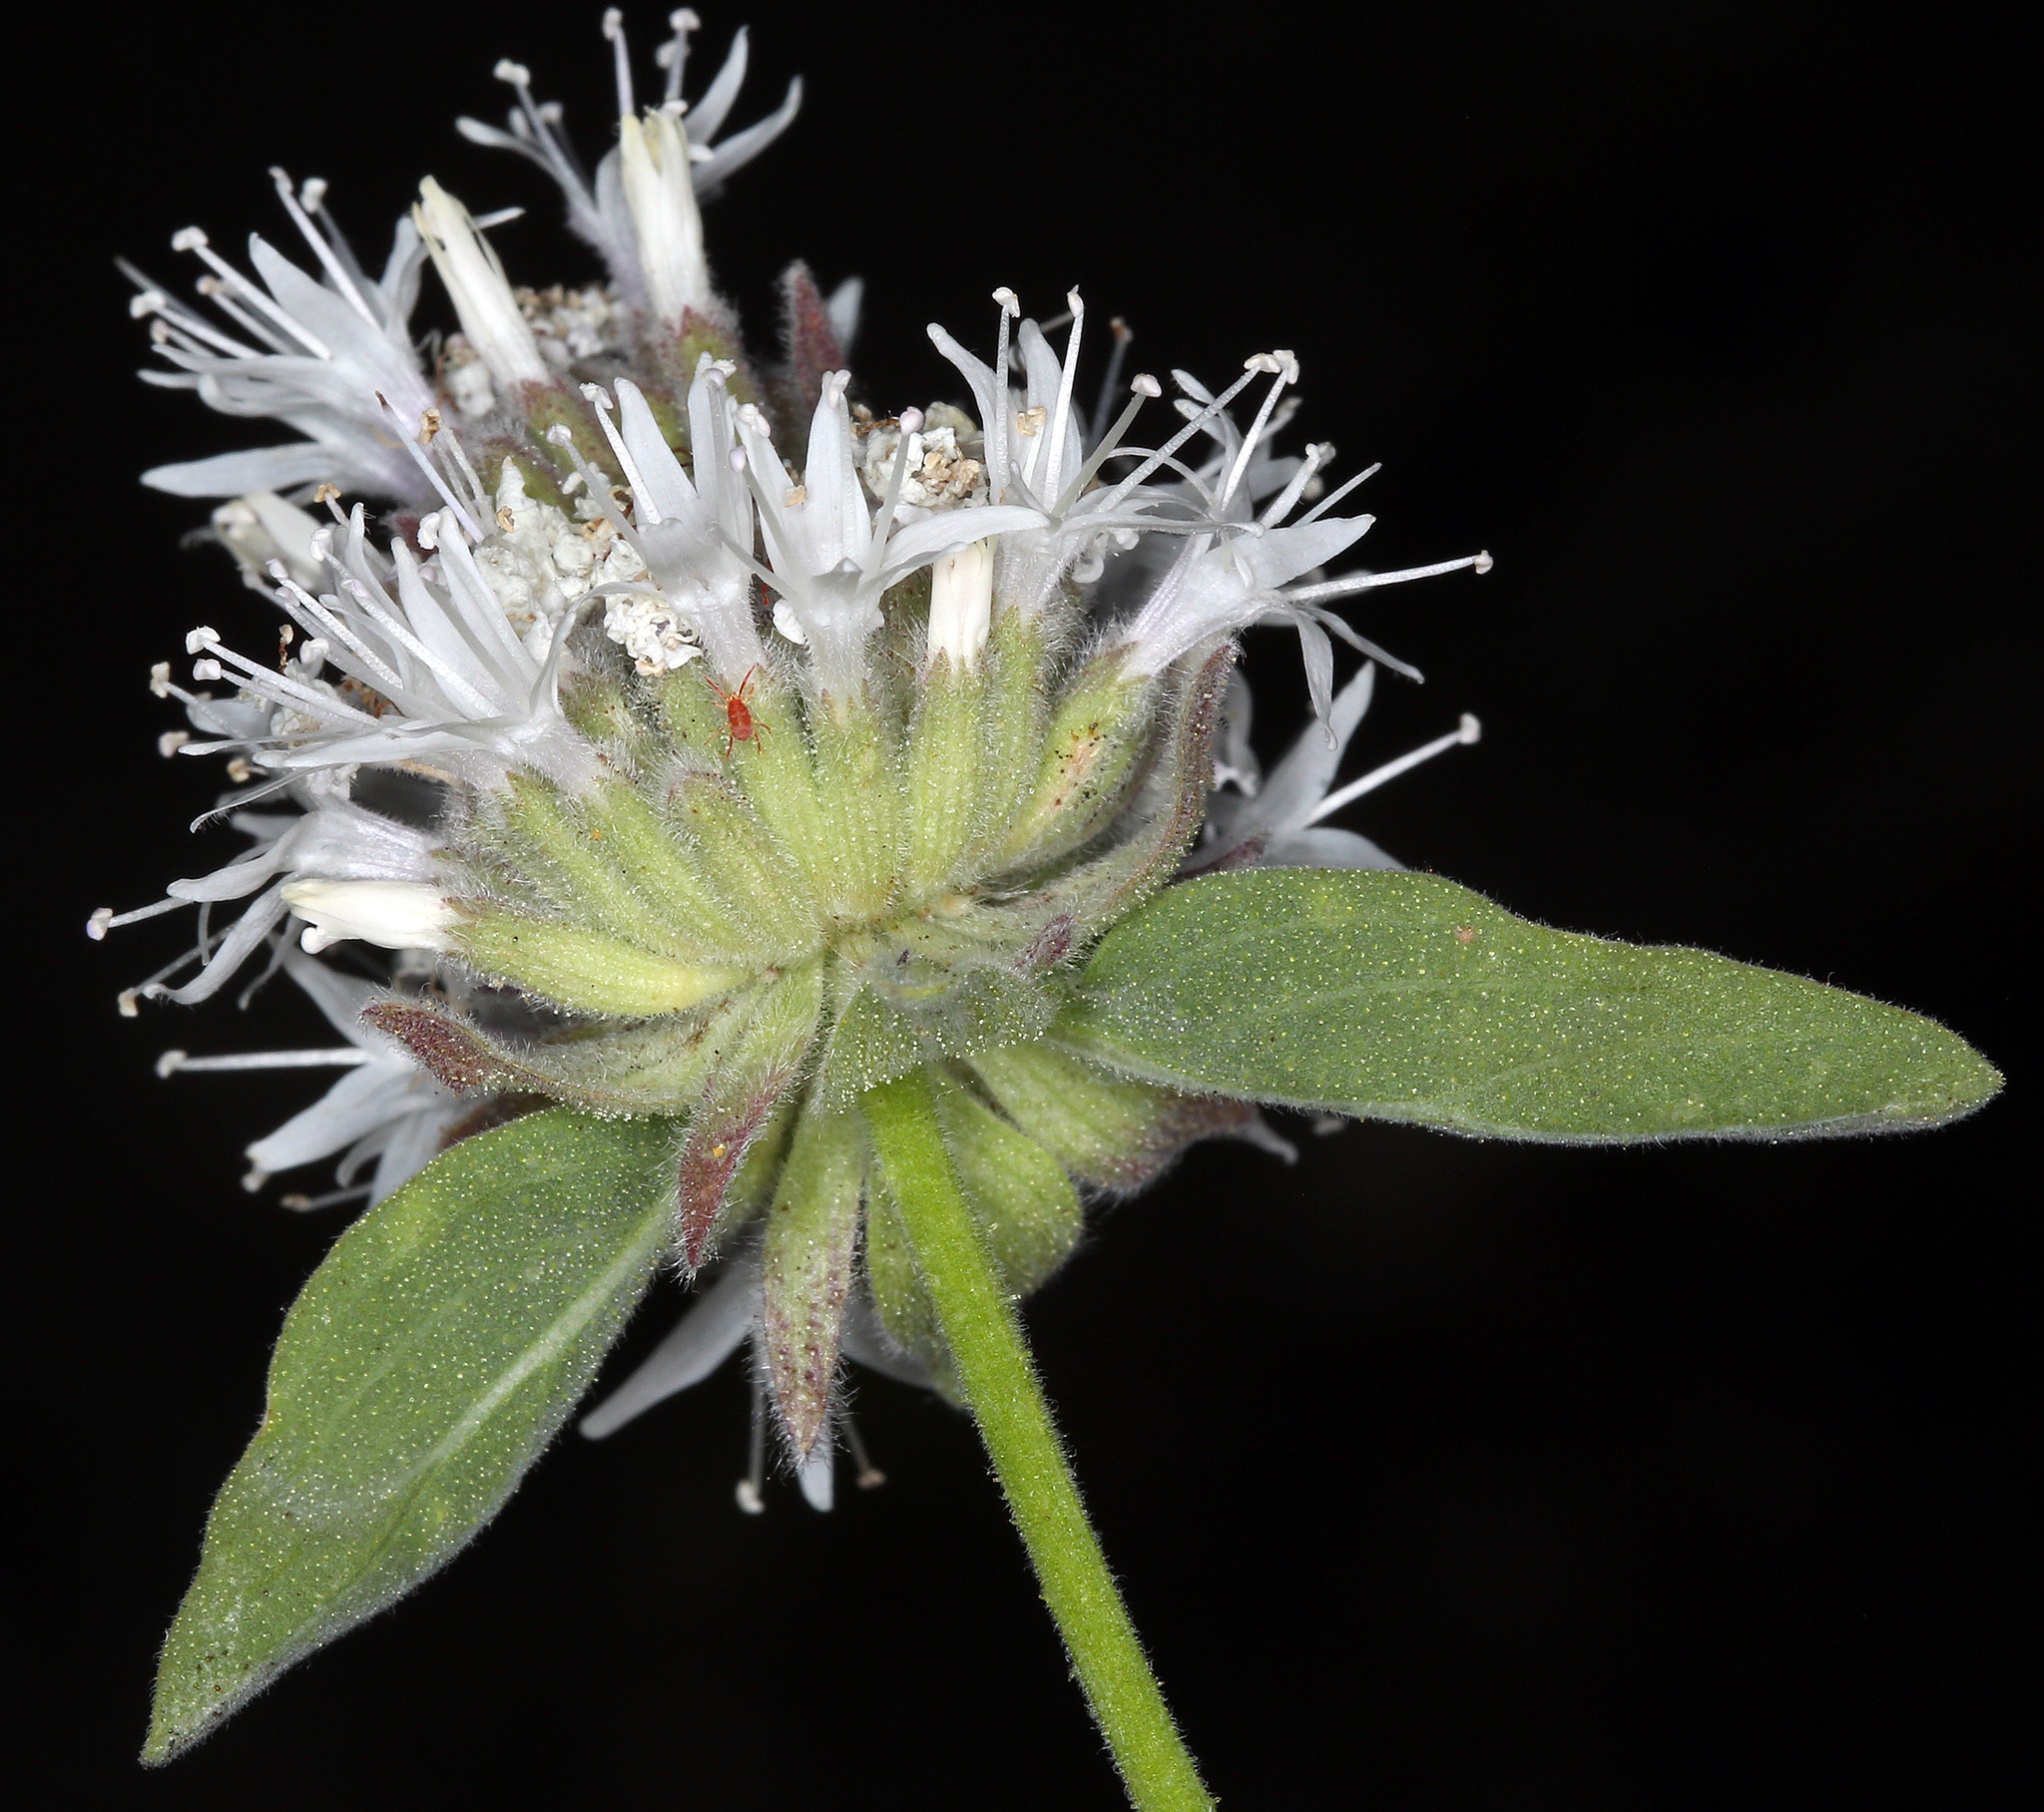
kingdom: Plantae
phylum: Tracheophyta
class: Magnoliopsida
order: Lamiales
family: Lamiaceae
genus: Monardella
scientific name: Monardella odoratissima
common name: Pacific monardella
